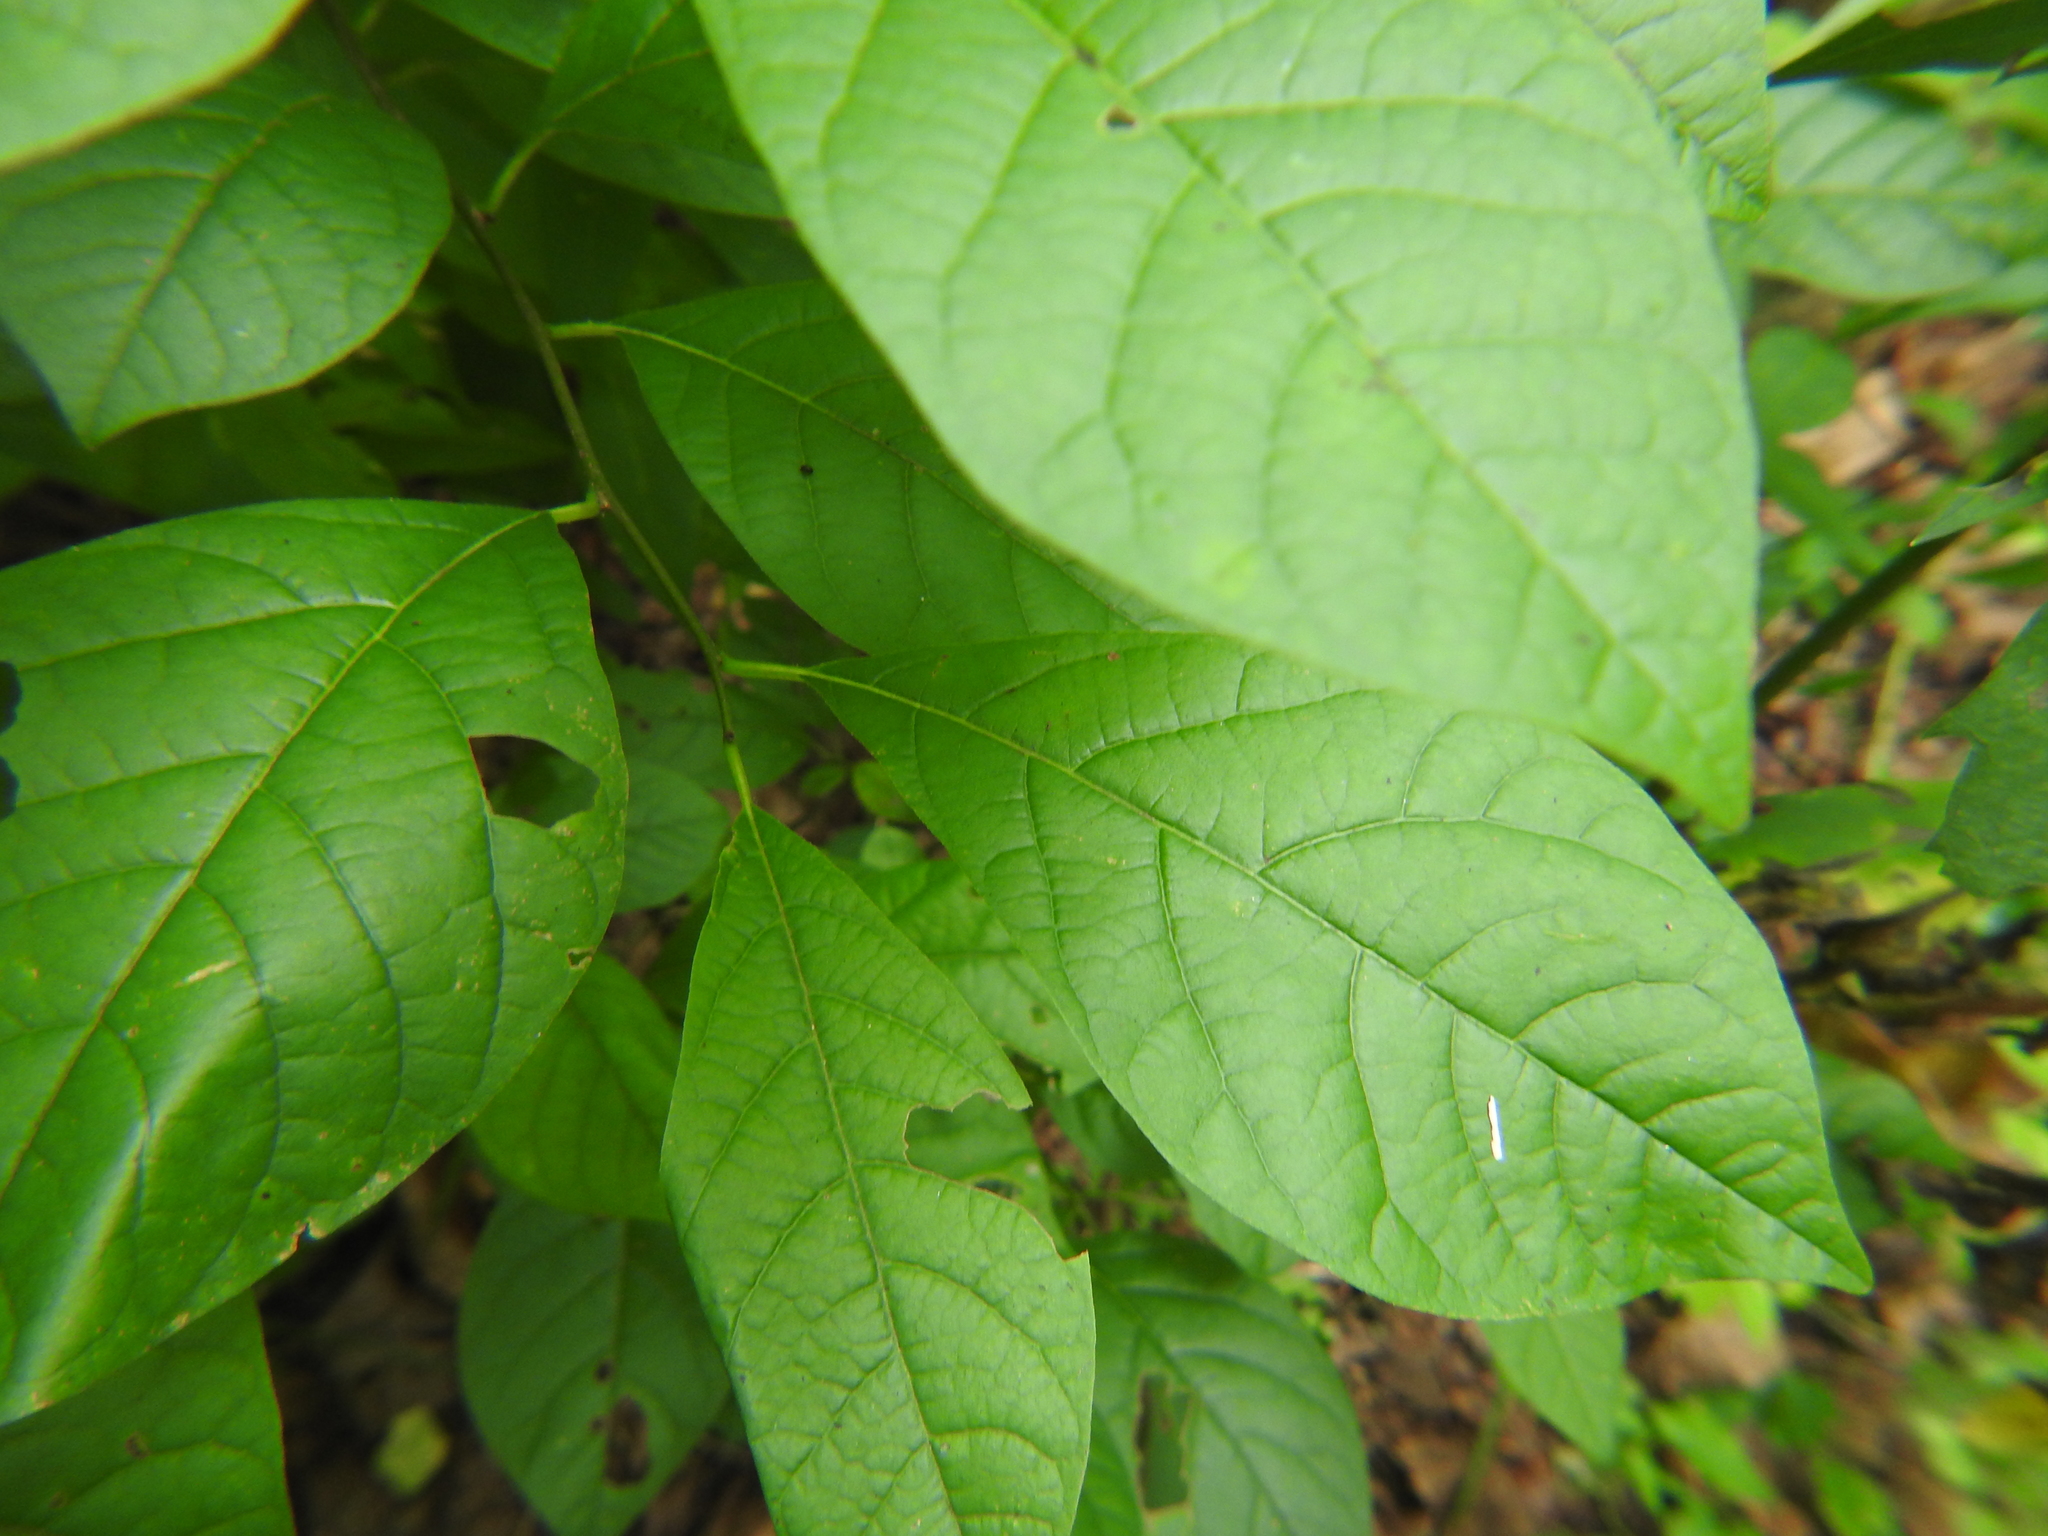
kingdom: Plantae
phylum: Tracheophyta
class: Magnoliopsida
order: Laurales
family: Lauraceae
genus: Lindera
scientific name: Lindera benzoin
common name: Spicebush
